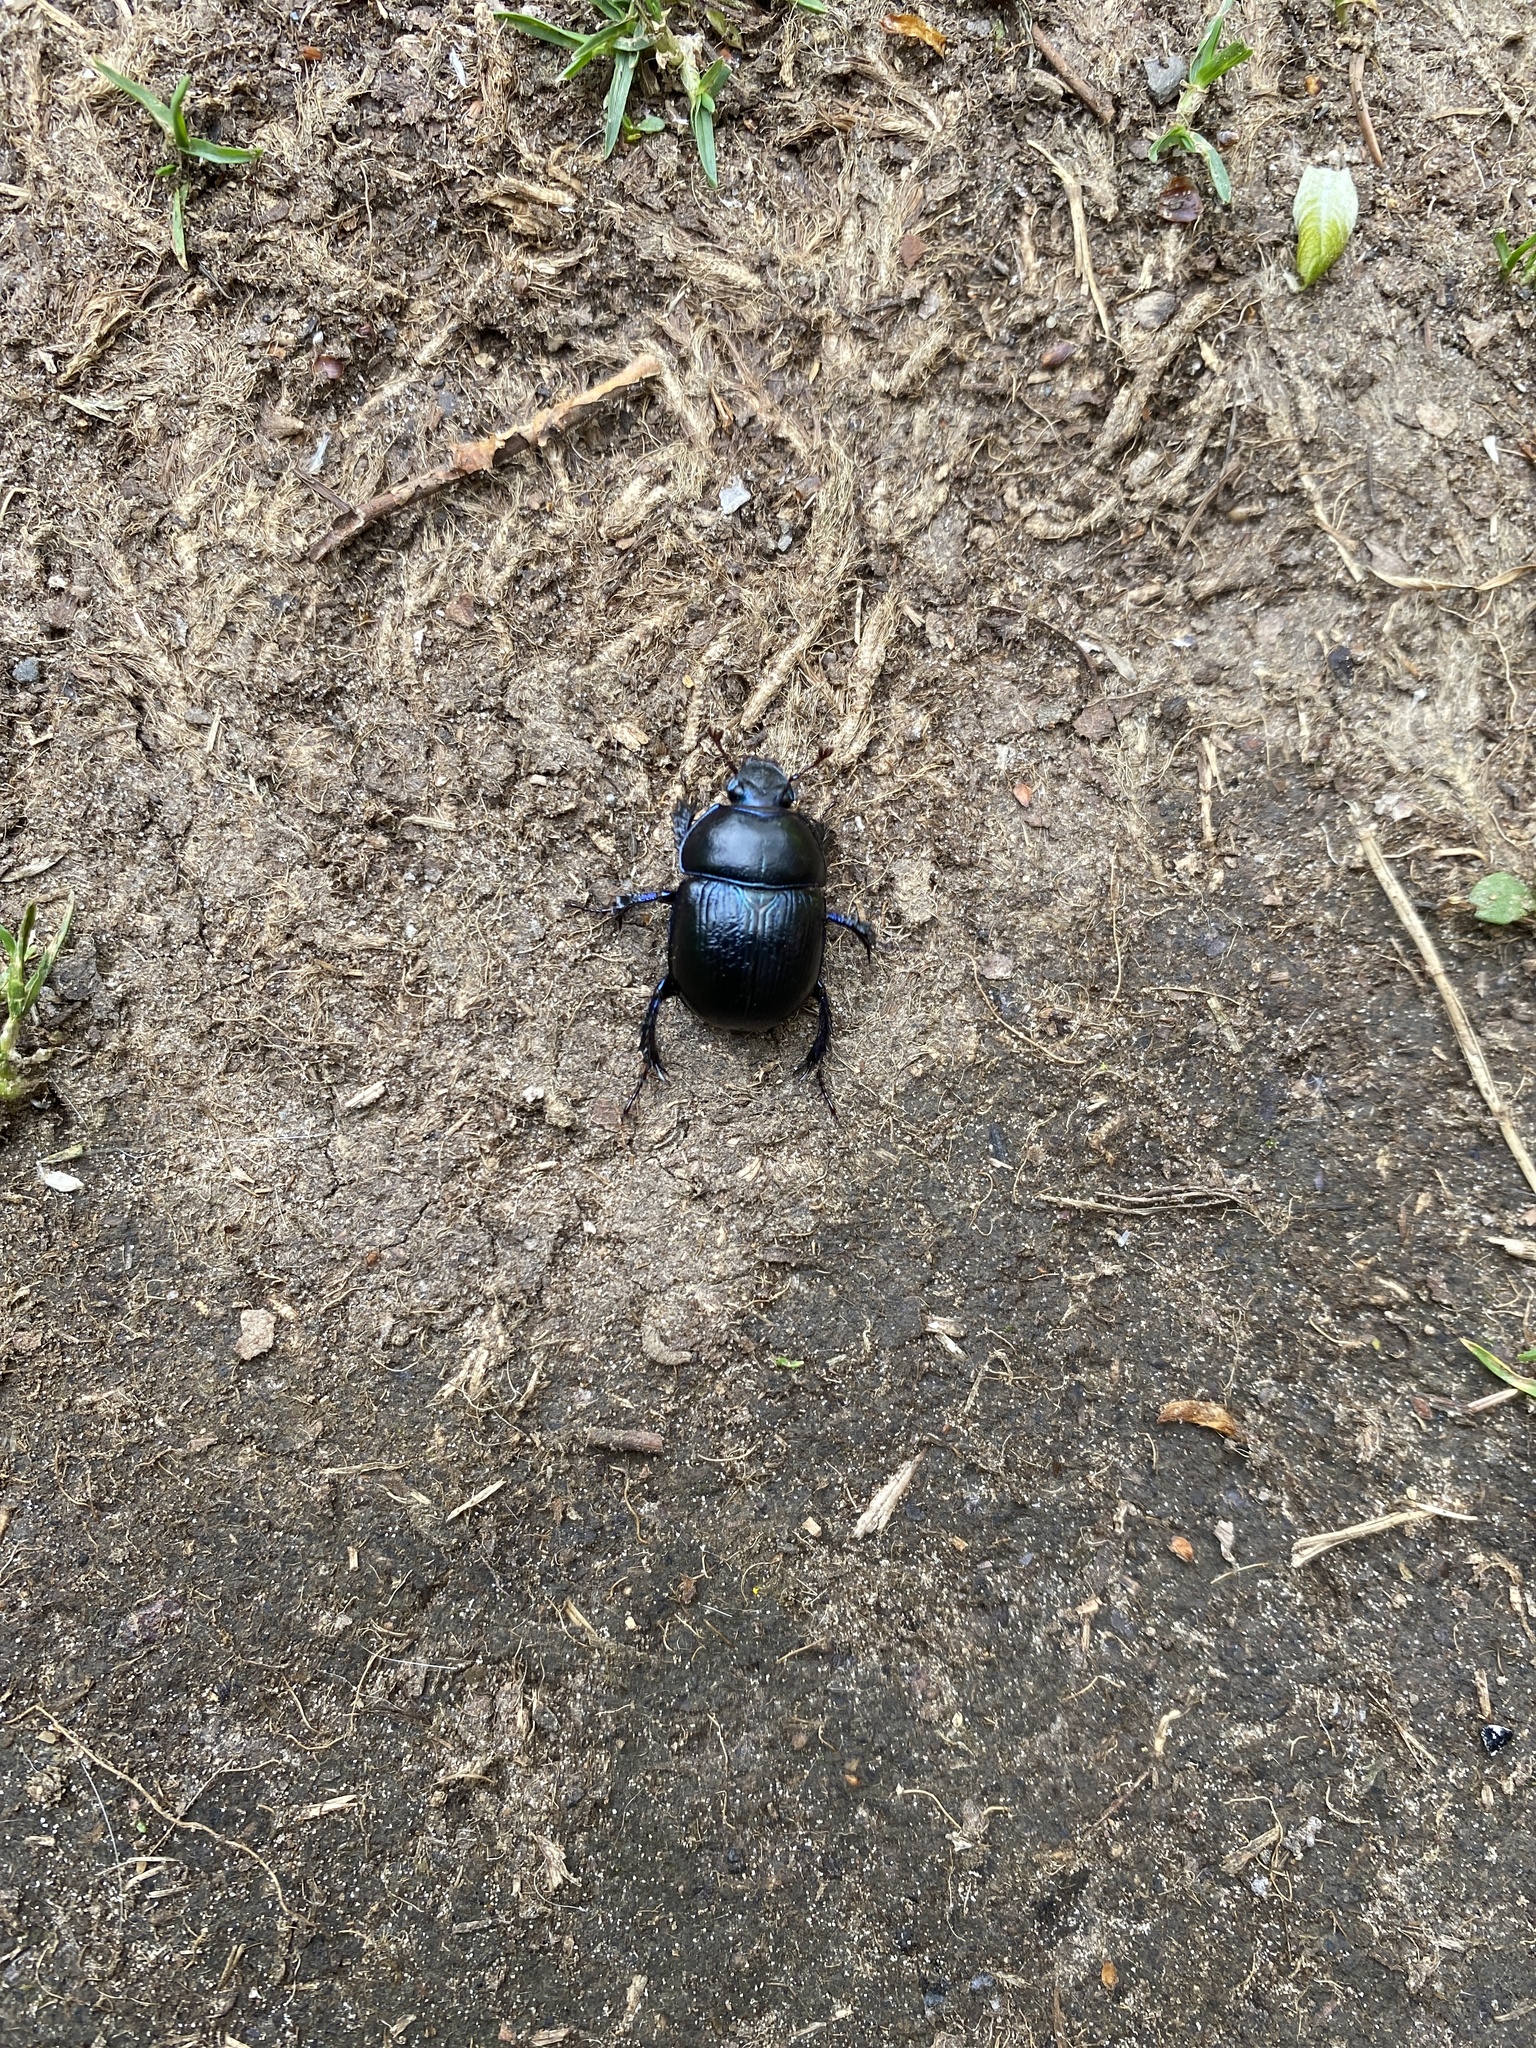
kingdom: Animalia
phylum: Arthropoda
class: Insecta
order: Coleoptera
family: Geotrupidae
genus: Anoplotrupes
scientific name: Anoplotrupes stercorosus
